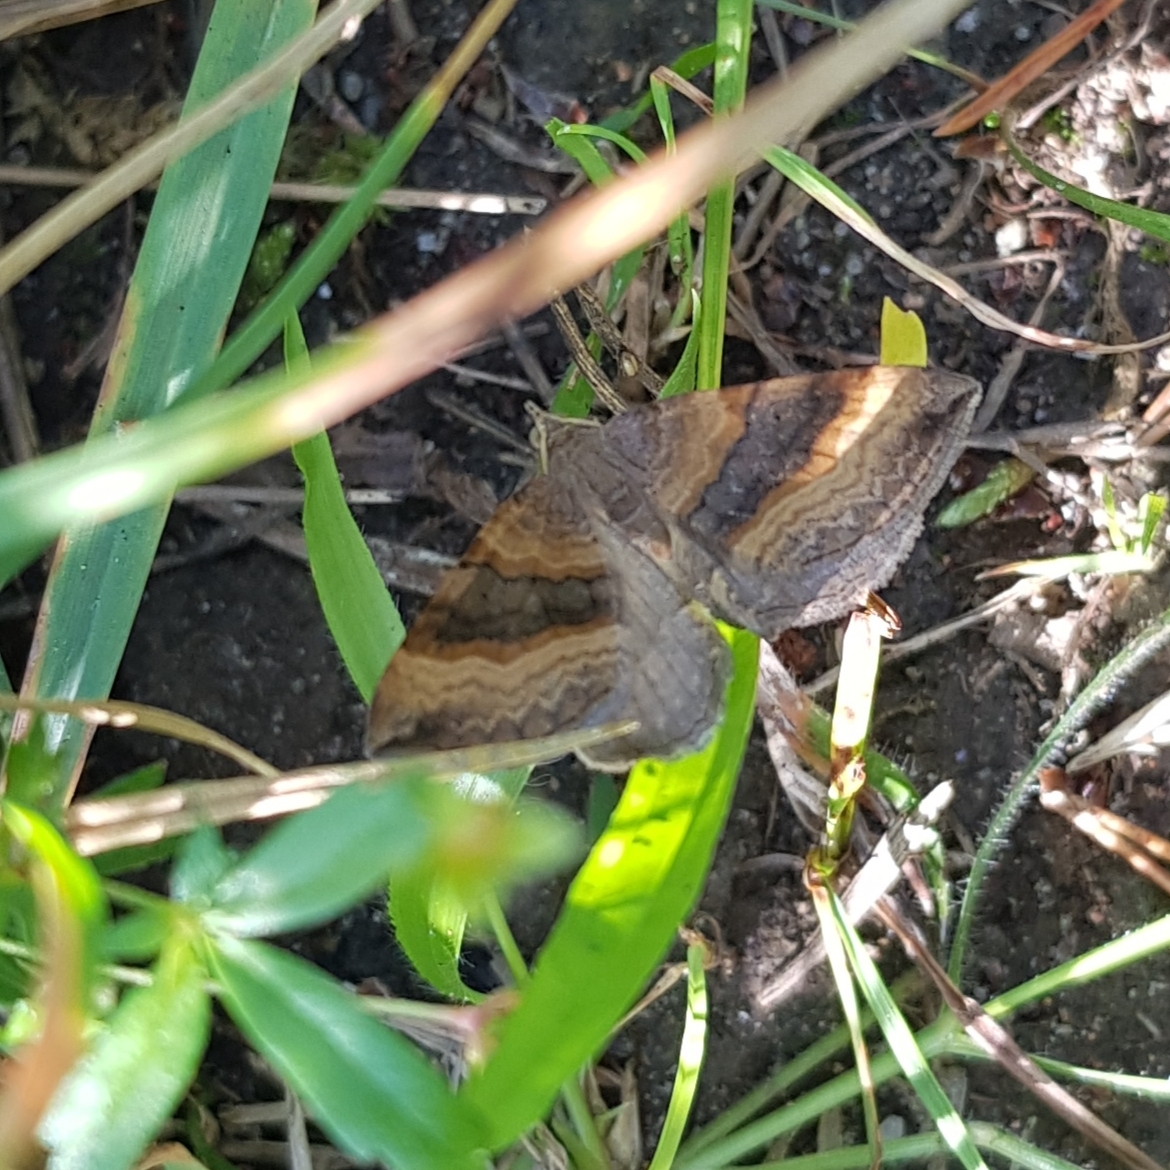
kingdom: Animalia
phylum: Arthropoda
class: Insecta
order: Lepidoptera
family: Geometridae
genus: Scotopteryx
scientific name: Scotopteryx chenopodiata
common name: Shaded broad-bar
